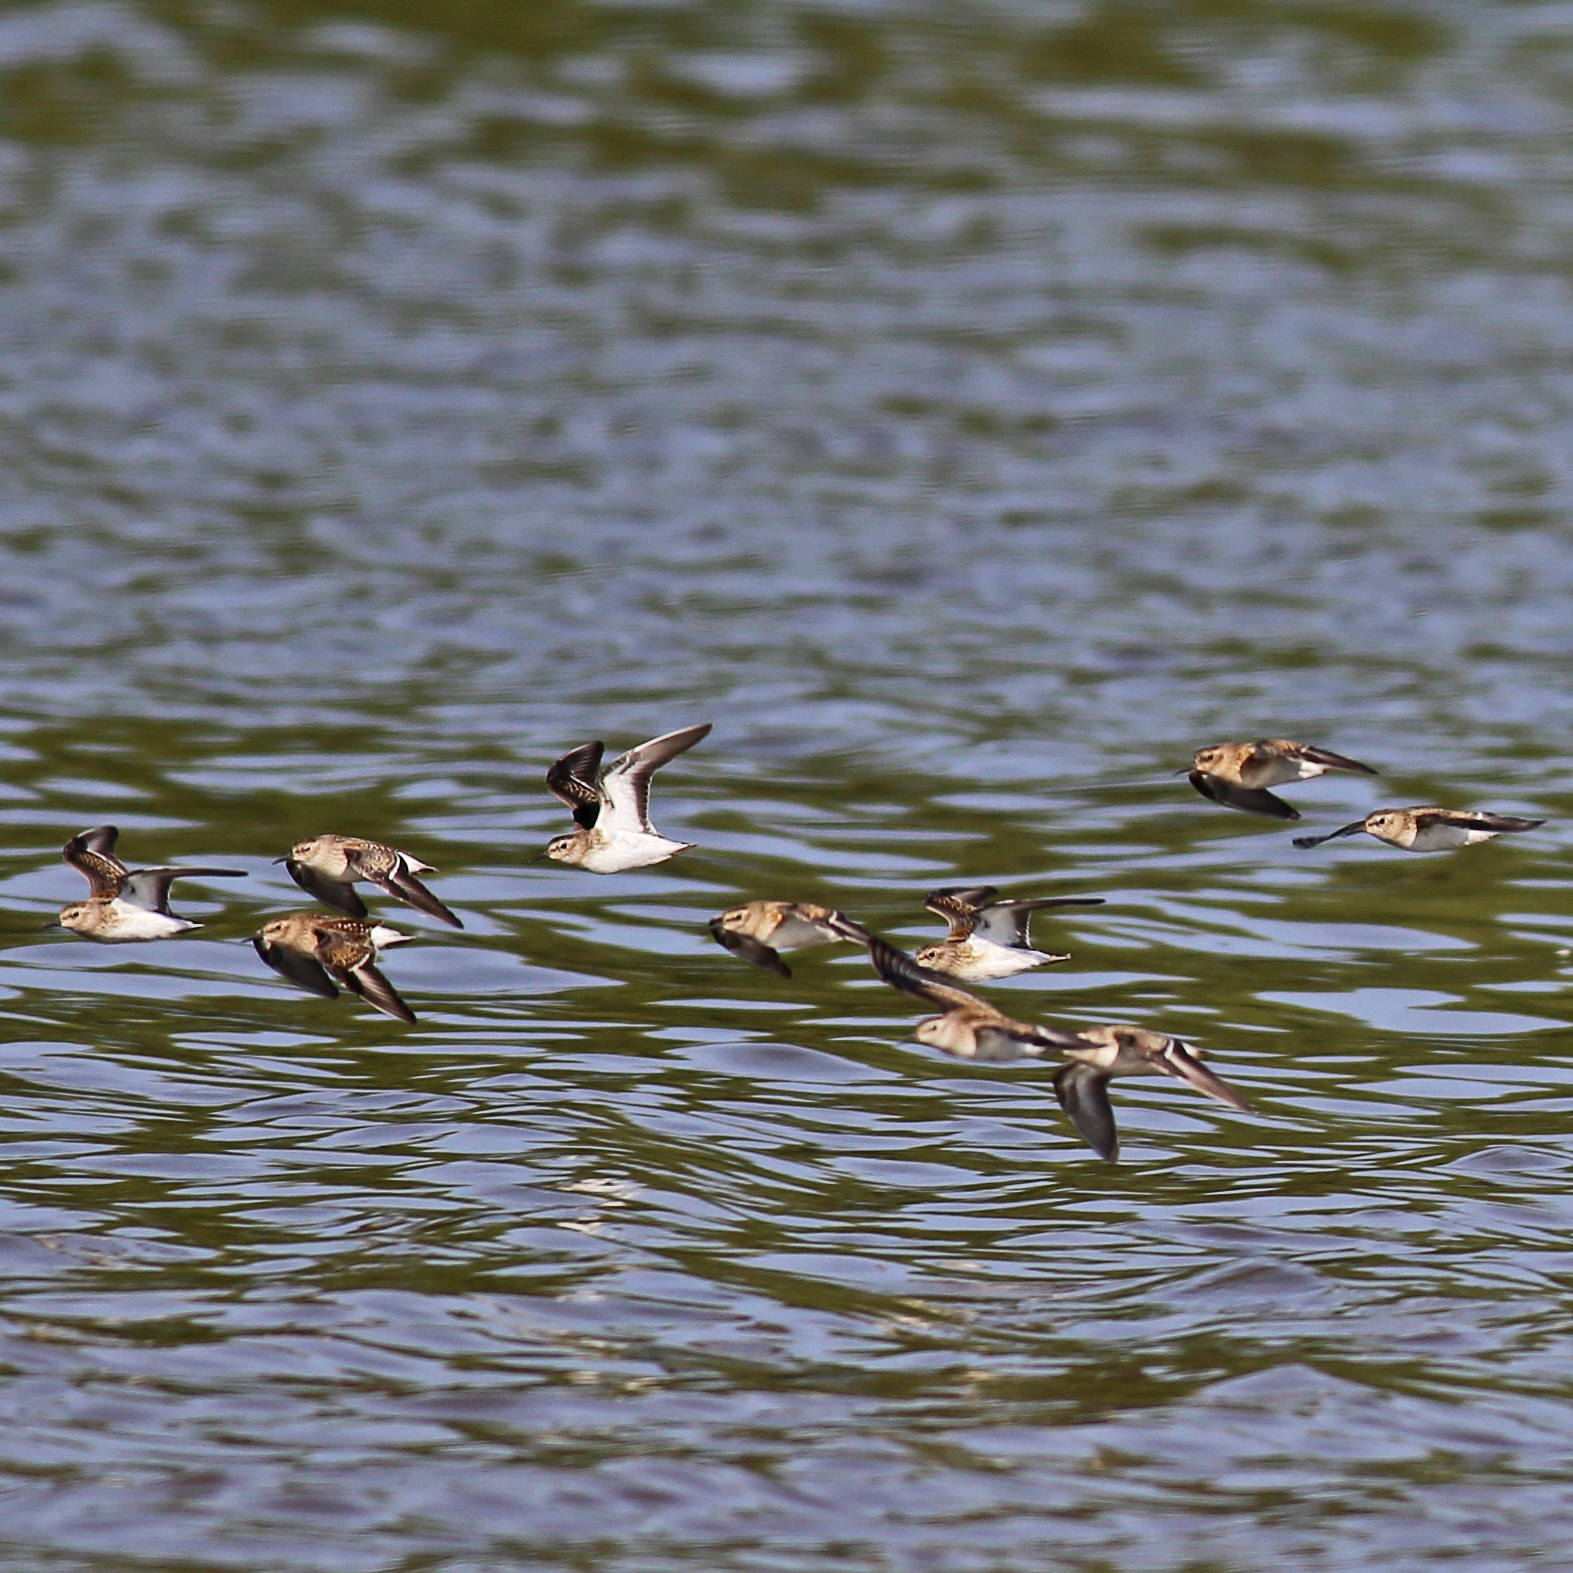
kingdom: Animalia
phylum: Chordata
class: Aves
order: Charadriiformes
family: Scolopacidae
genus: Calidris
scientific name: Calidris minutilla
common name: Least sandpiper
